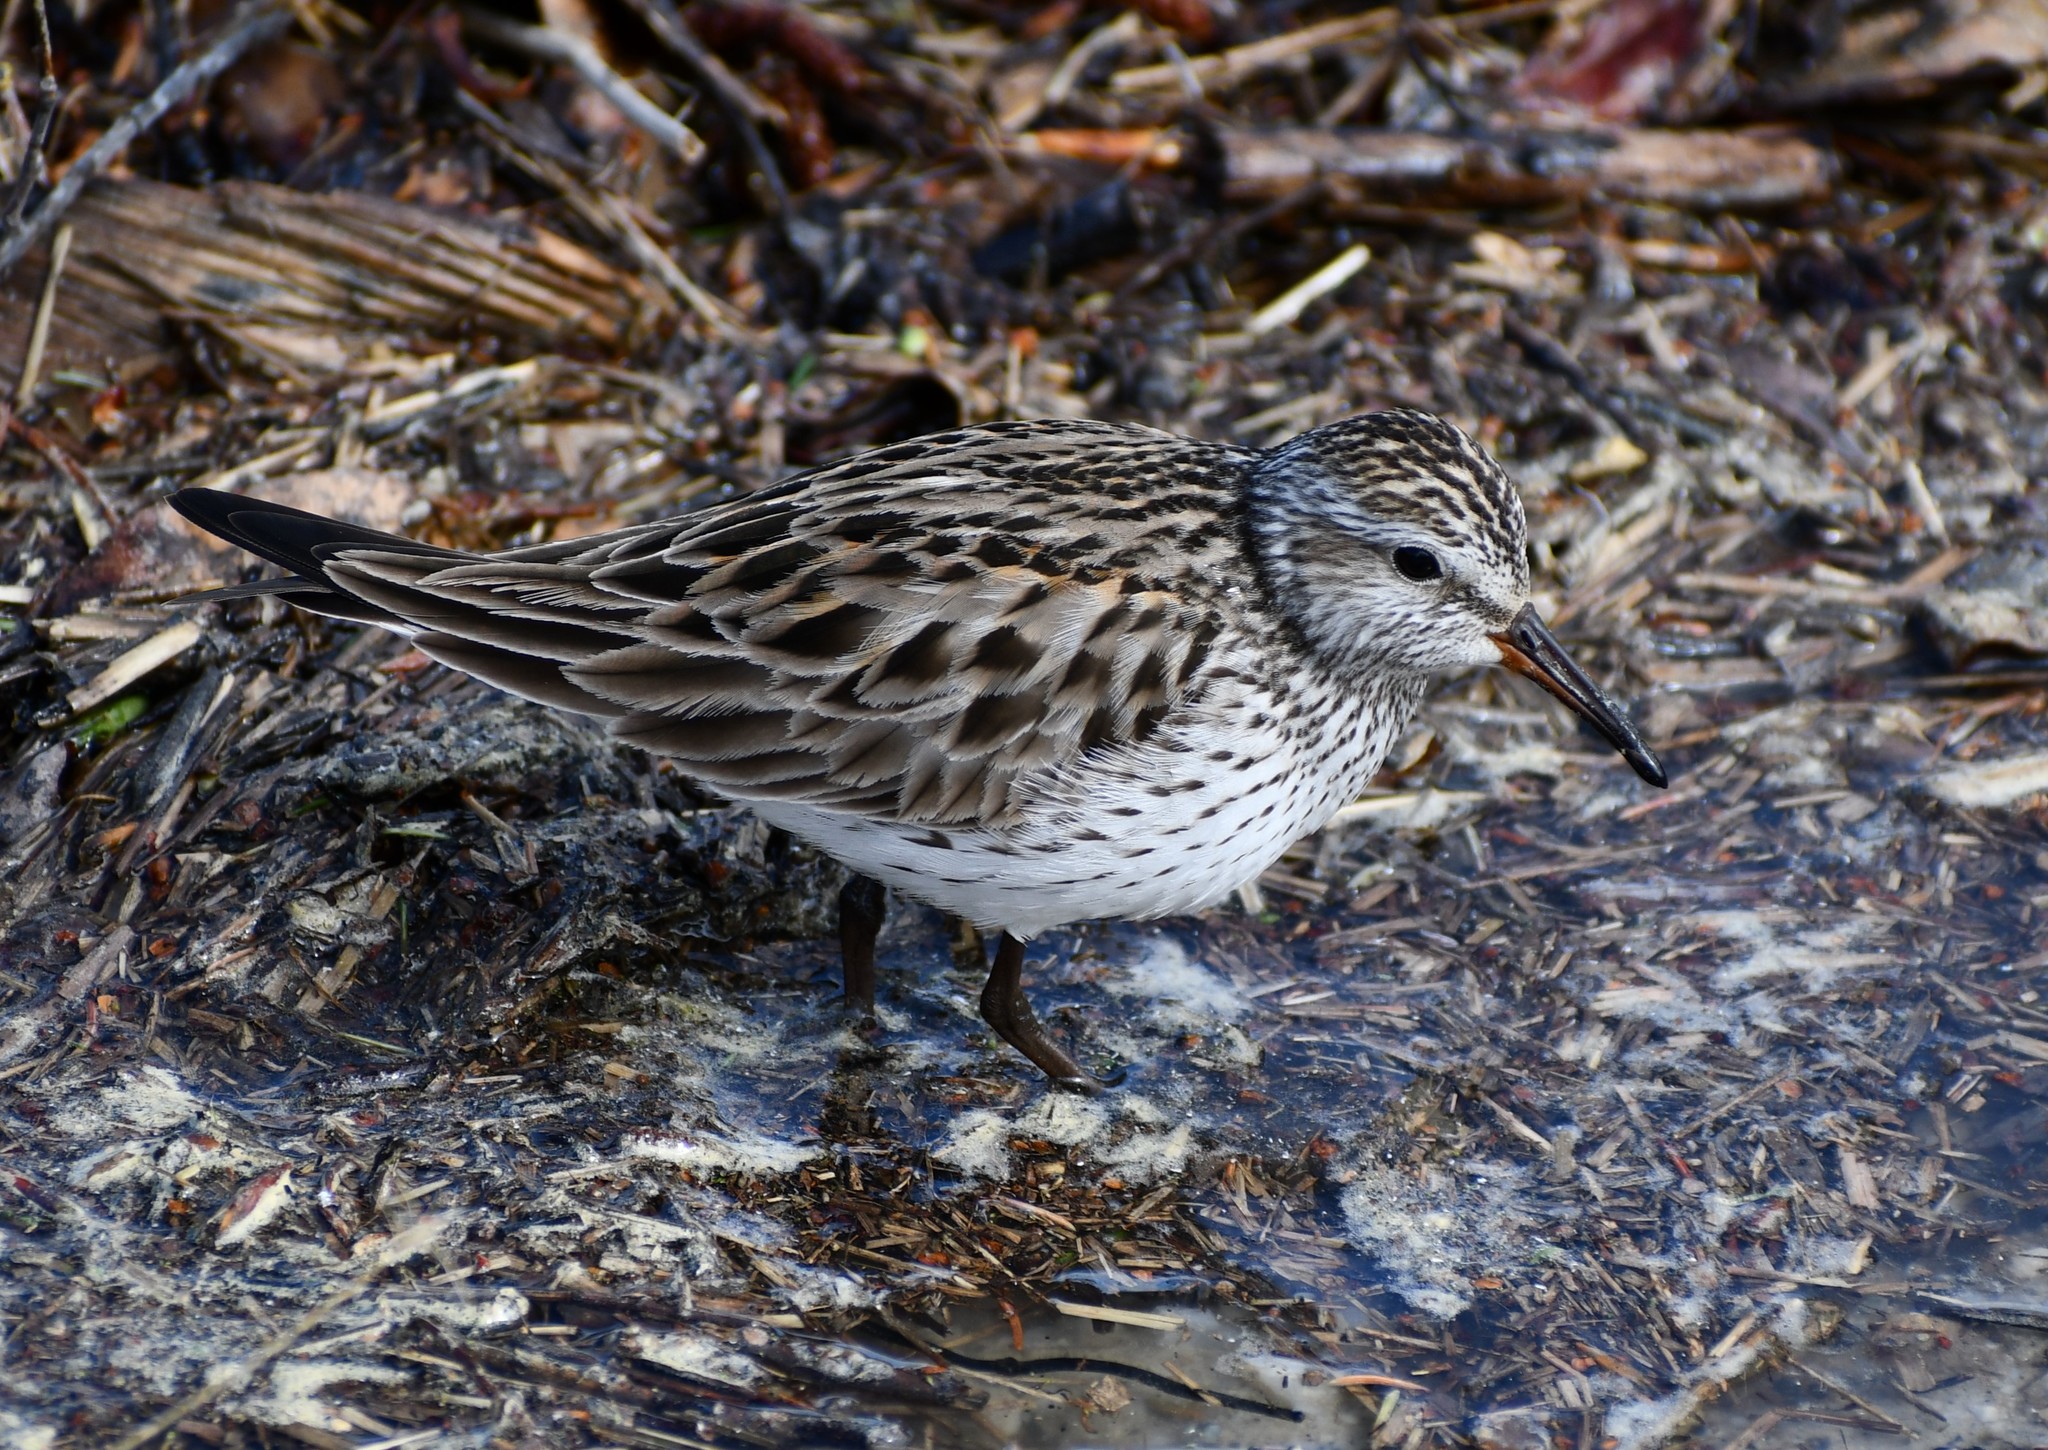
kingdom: Animalia
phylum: Chordata
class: Aves
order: Charadriiformes
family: Scolopacidae
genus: Calidris
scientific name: Calidris fuscicollis
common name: White-rumped sandpiper
